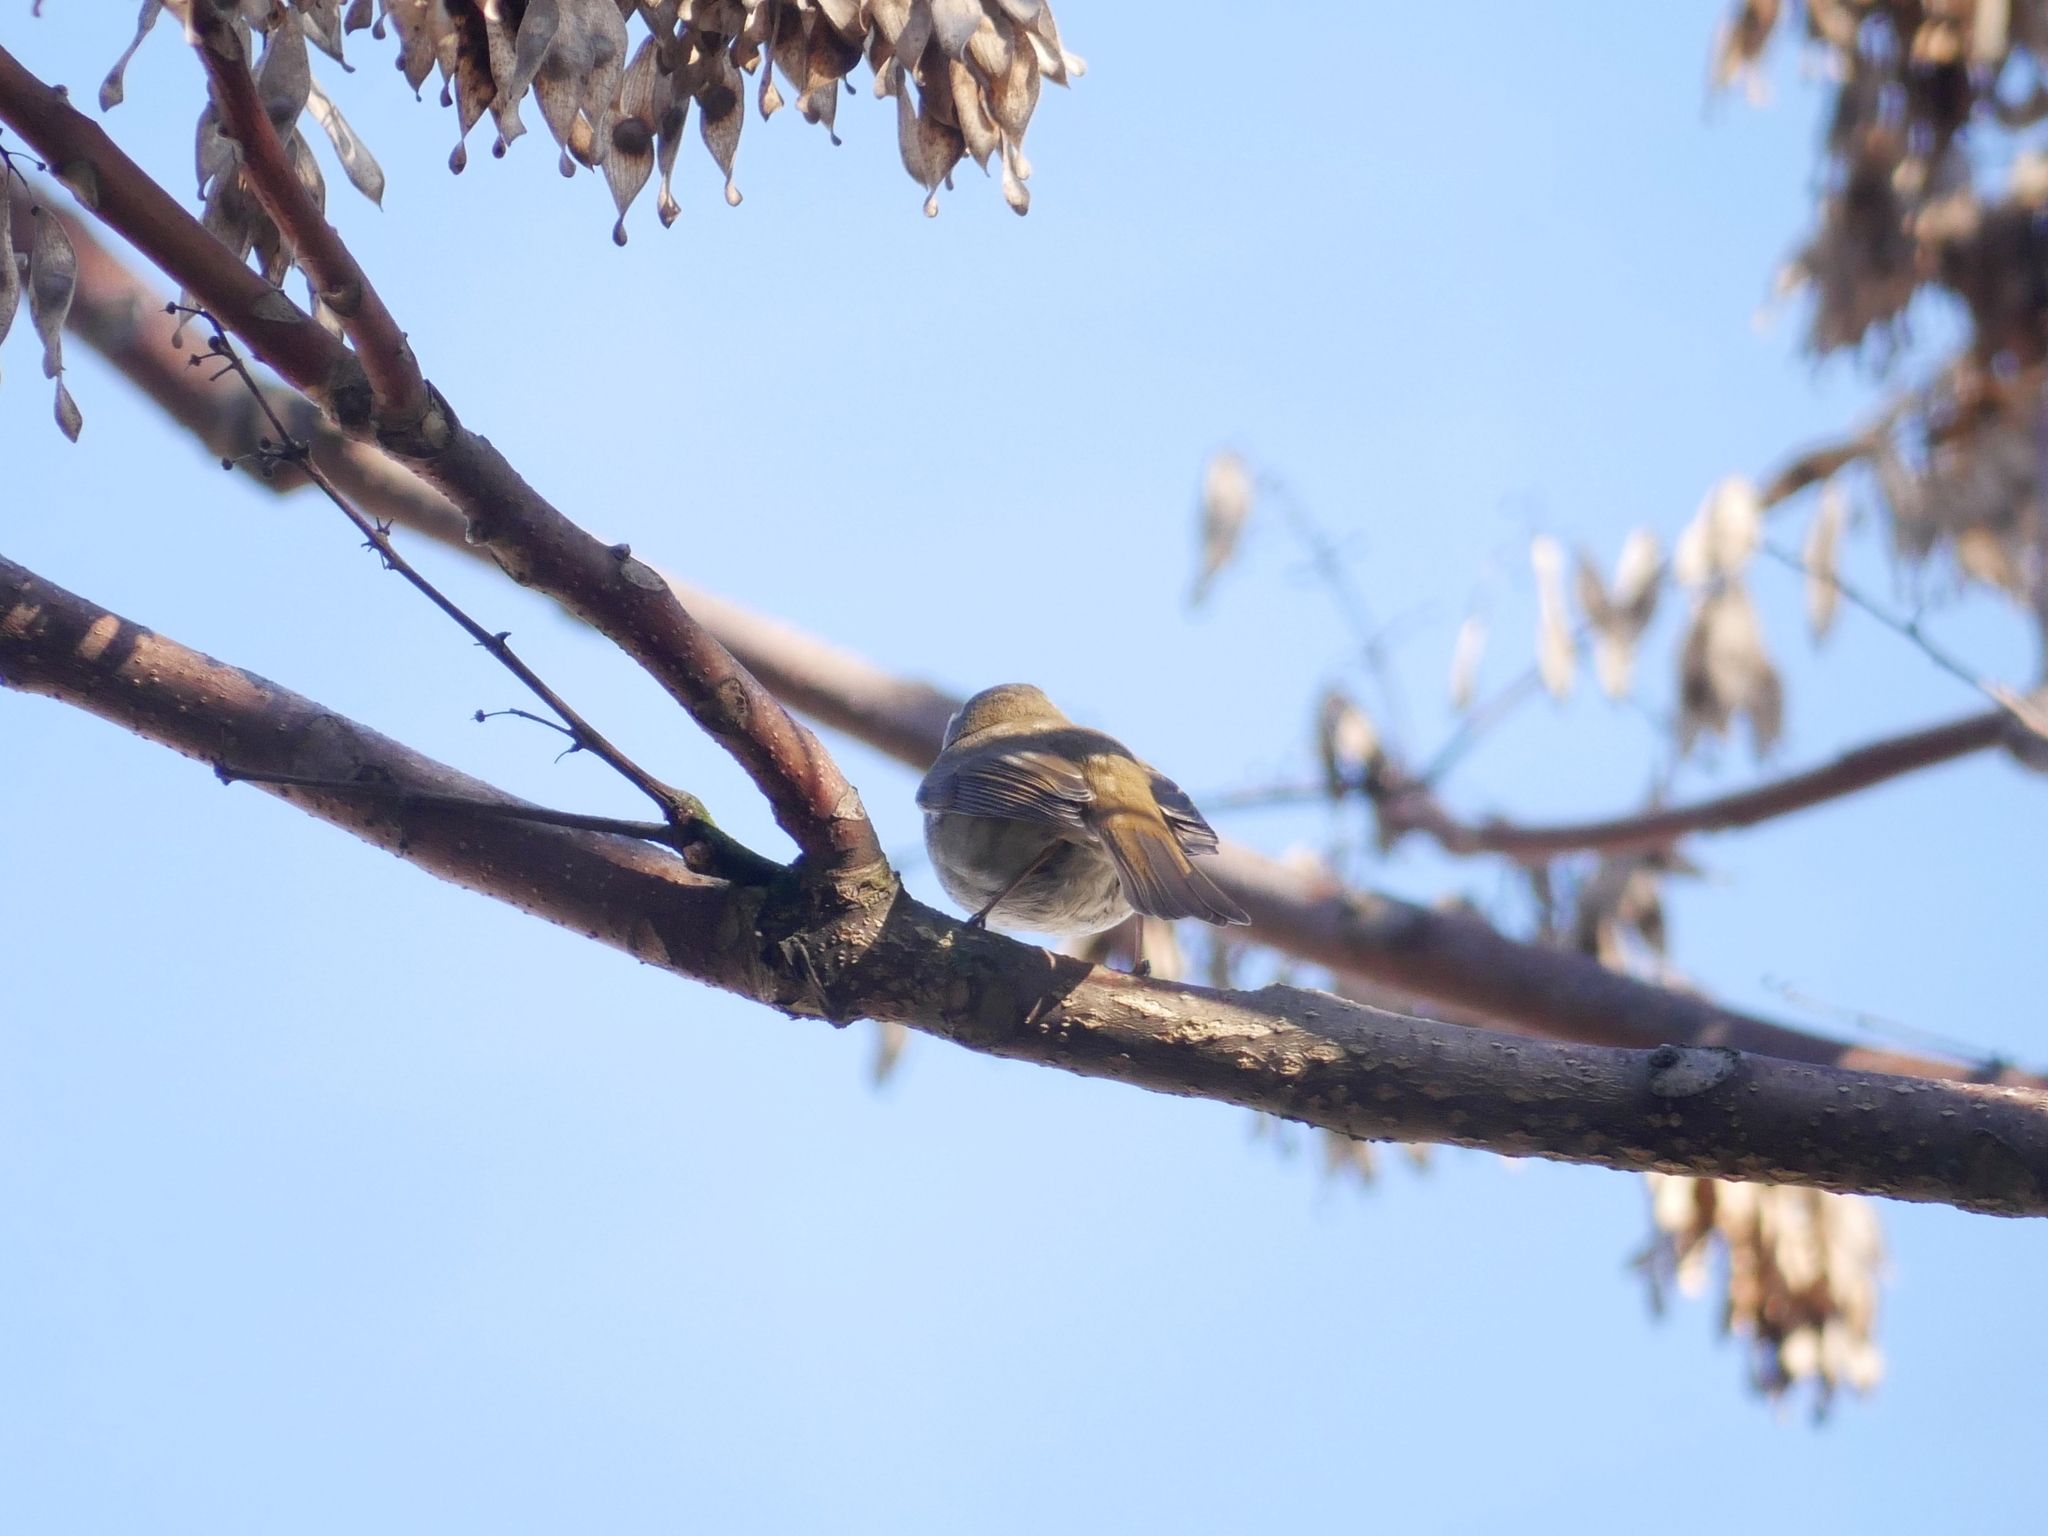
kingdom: Animalia
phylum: Chordata
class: Aves
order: Passeriformes
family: Muscicapidae
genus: Erithacus
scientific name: Erithacus rubecula
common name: European robin
